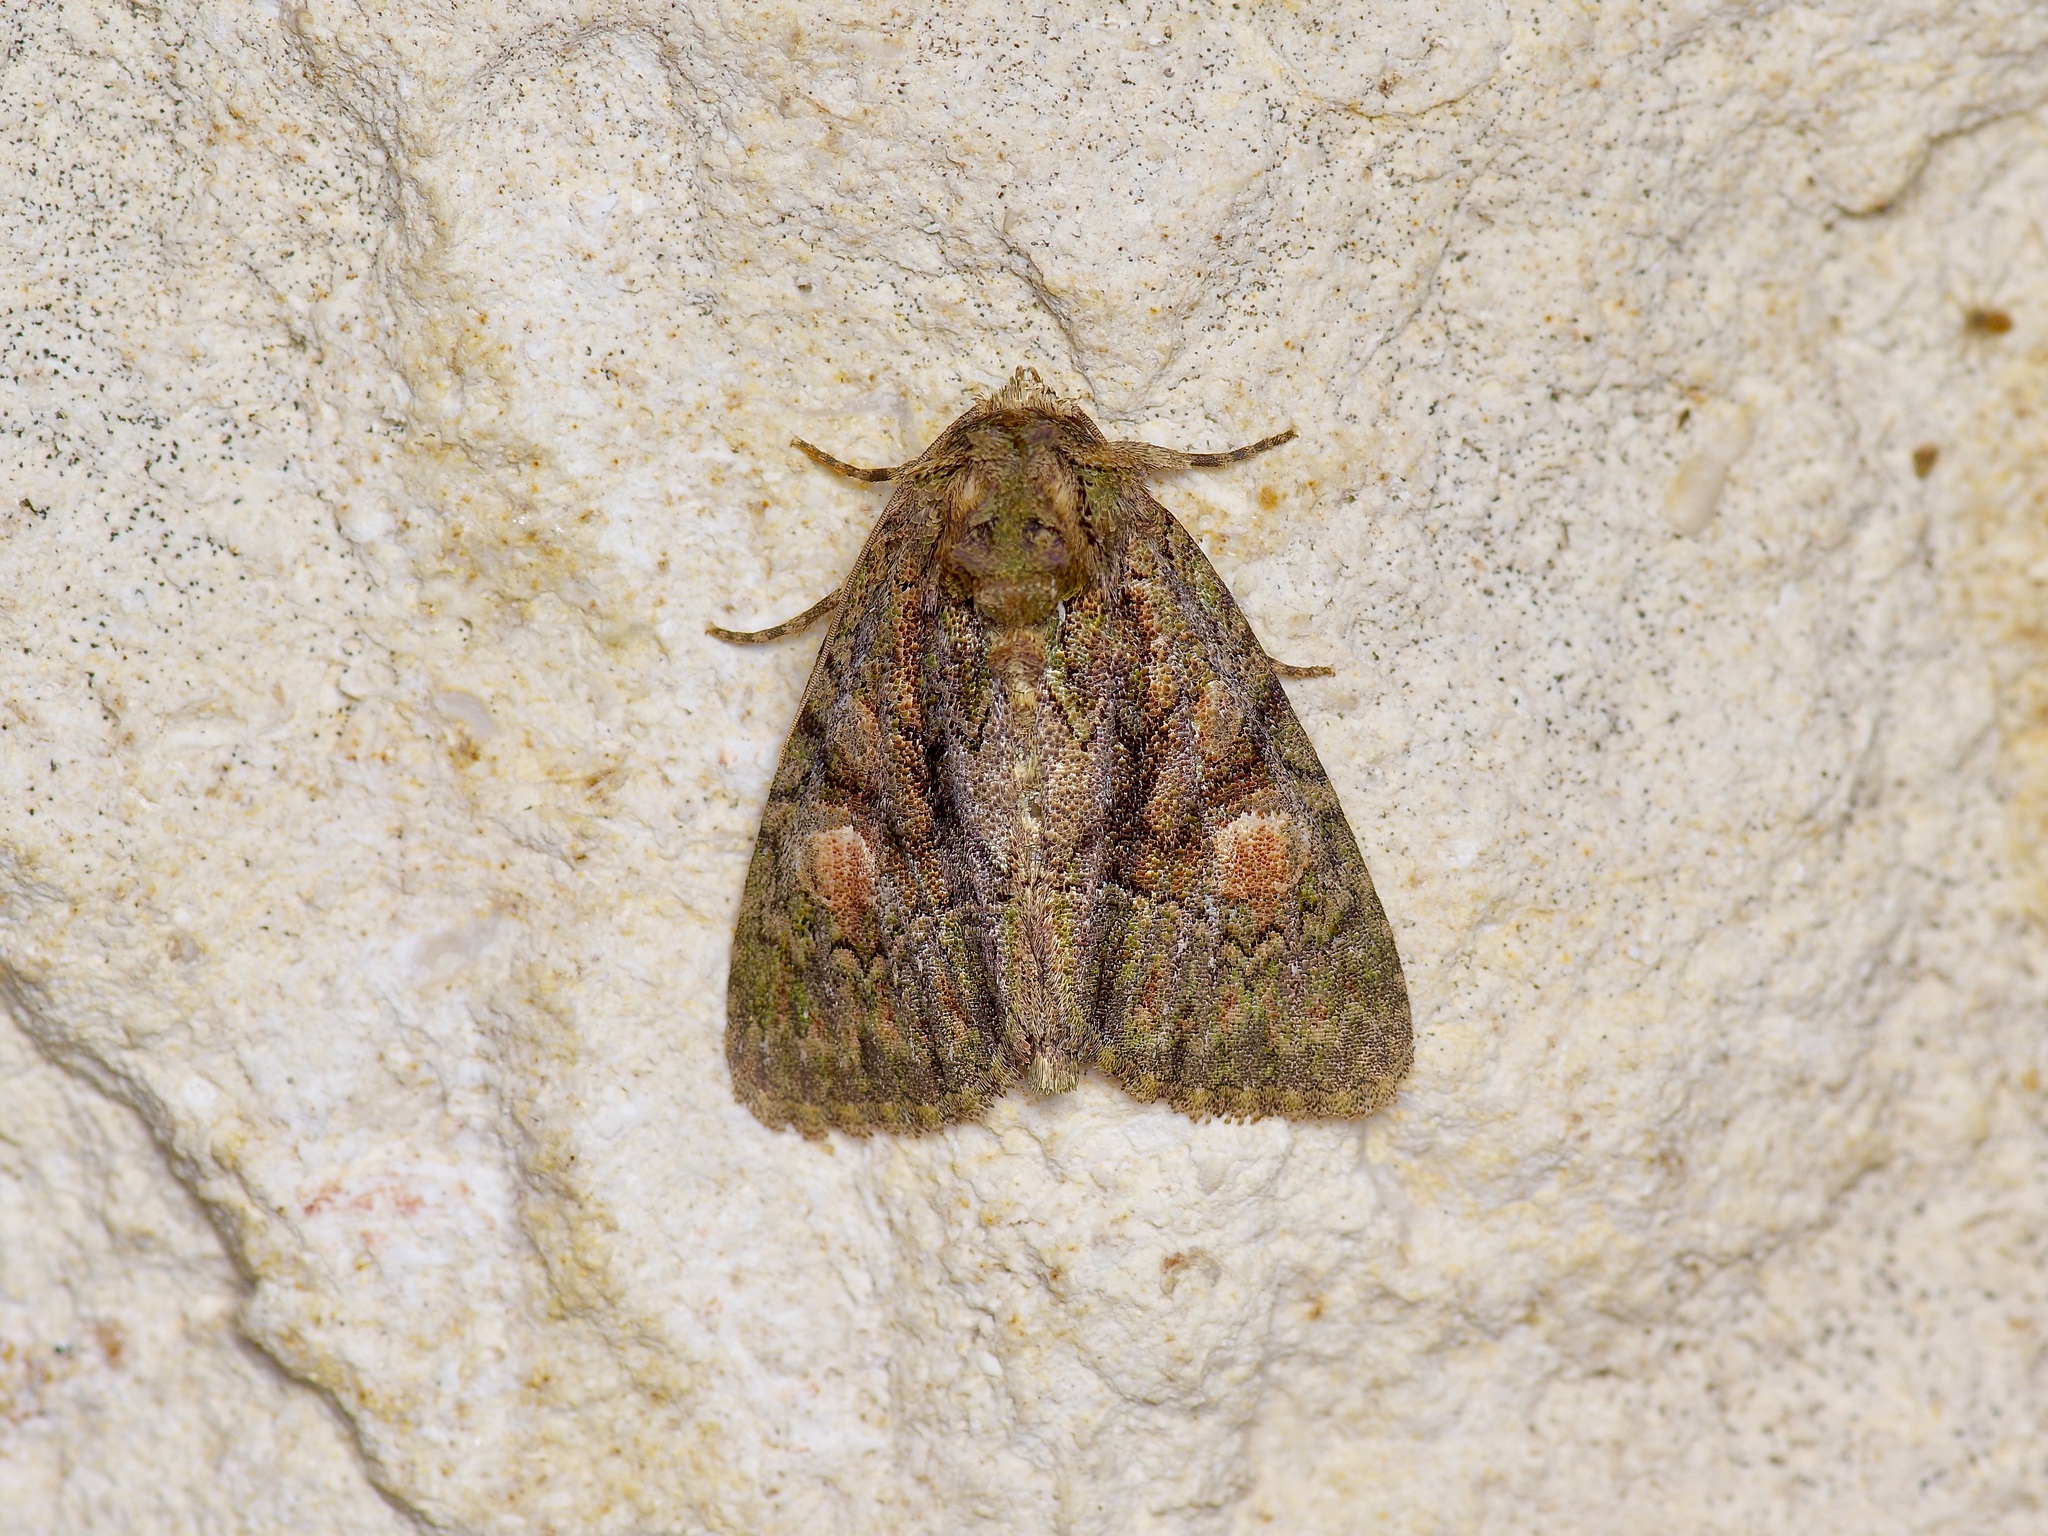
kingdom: Animalia
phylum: Arthropoda
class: Insecta
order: Lepidoptera
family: Noctuidae
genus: Phosphila
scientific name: Phosphila miselioides
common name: Spotted phosphila moth
